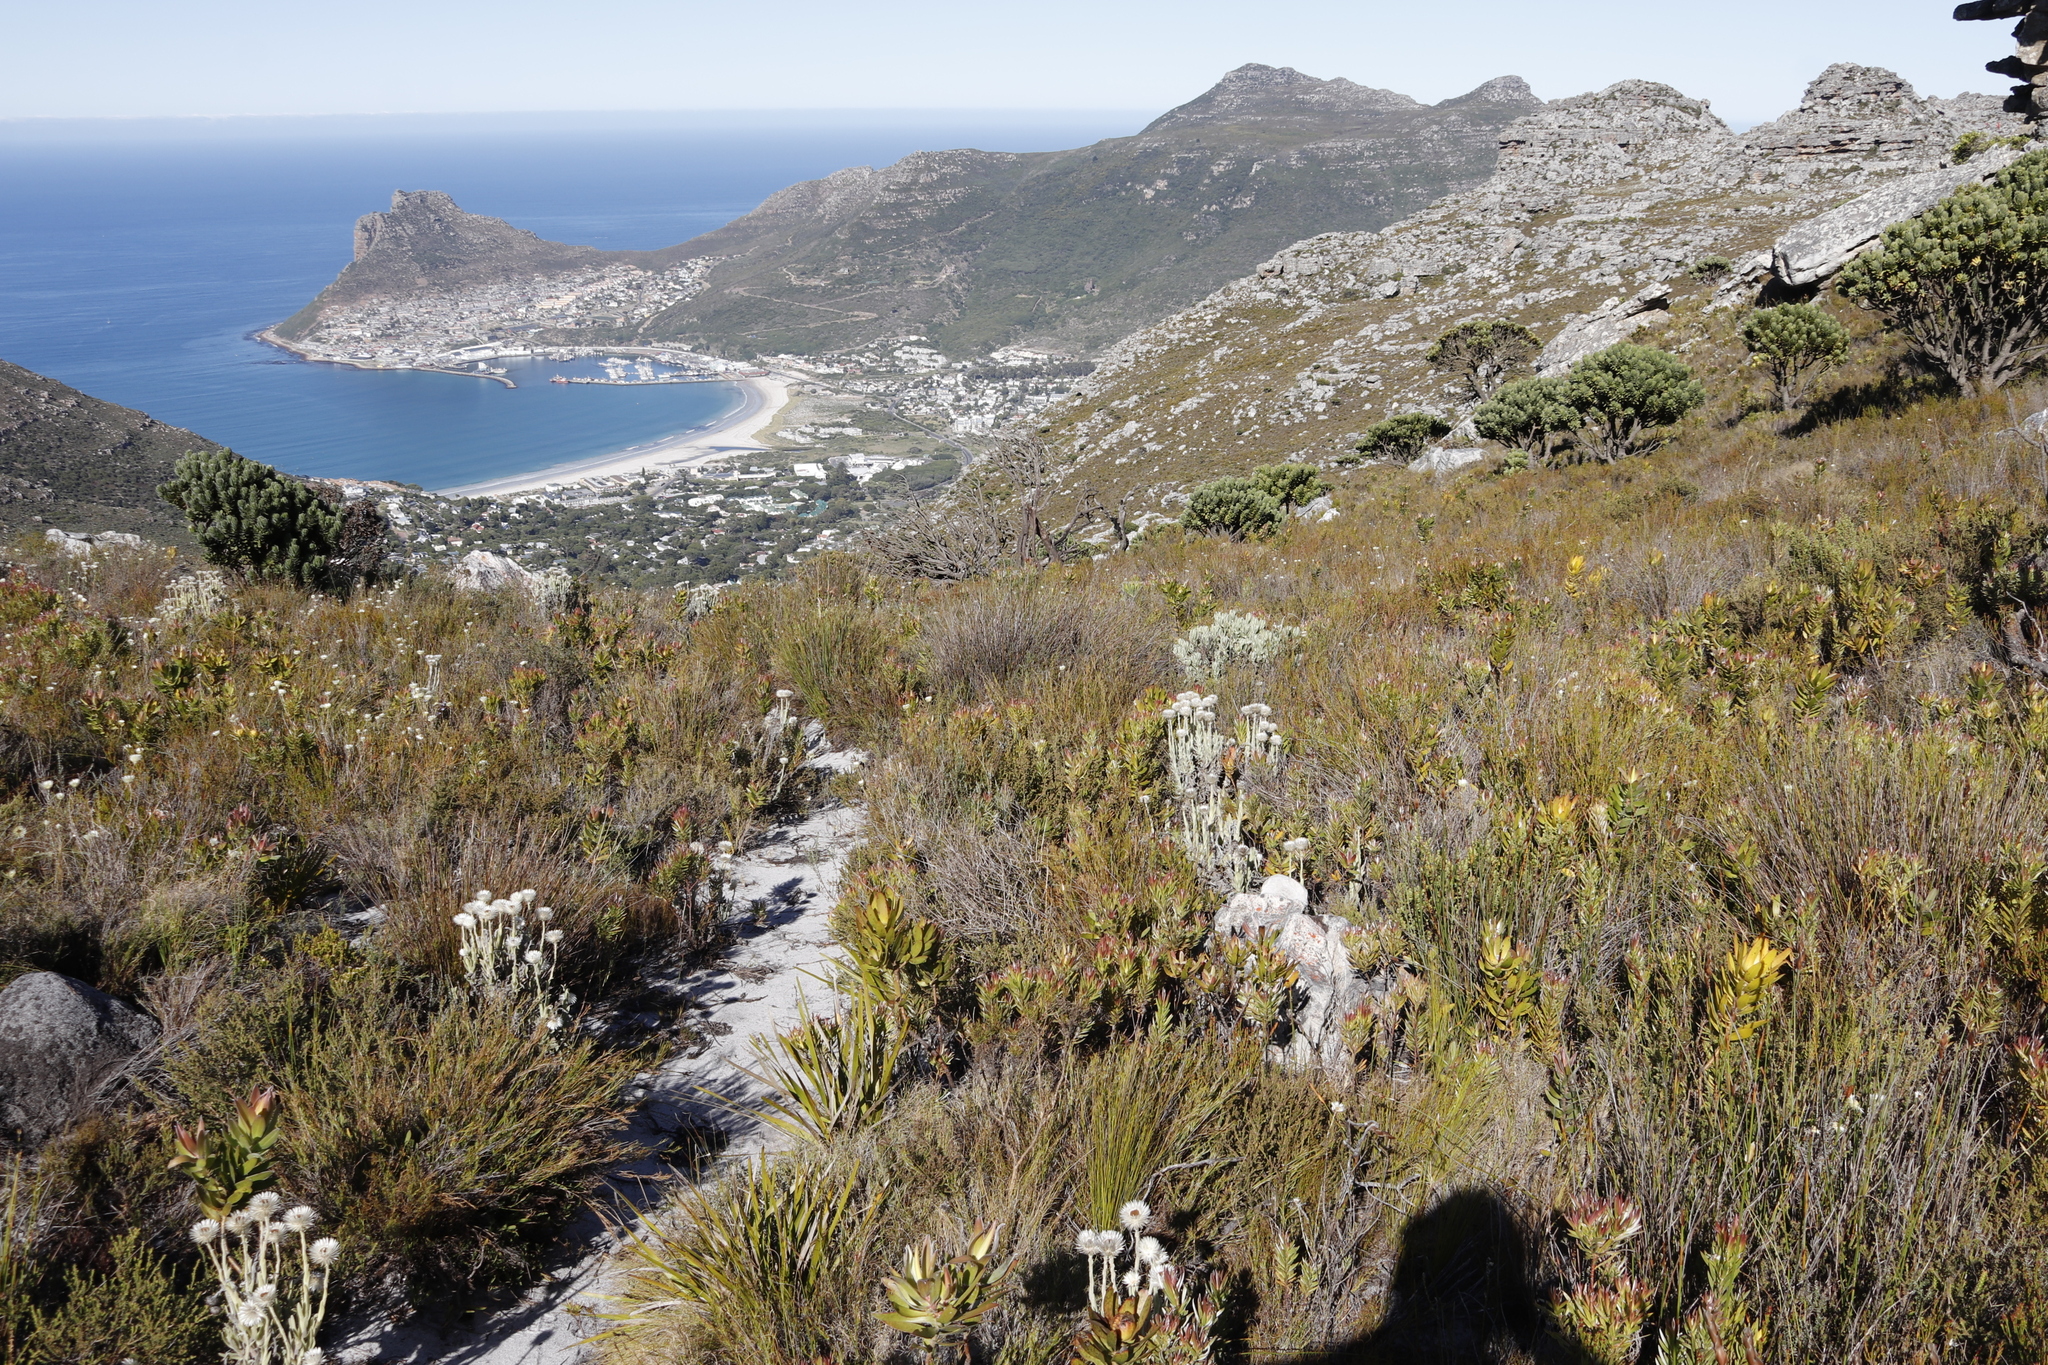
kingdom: Plantae
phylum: Tracheophyta
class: Magnoliopsida
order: Proteales
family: Proteaceae
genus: Leucadendron
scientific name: Leucadendron xanthoconus
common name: Sickle-leaf conebush
